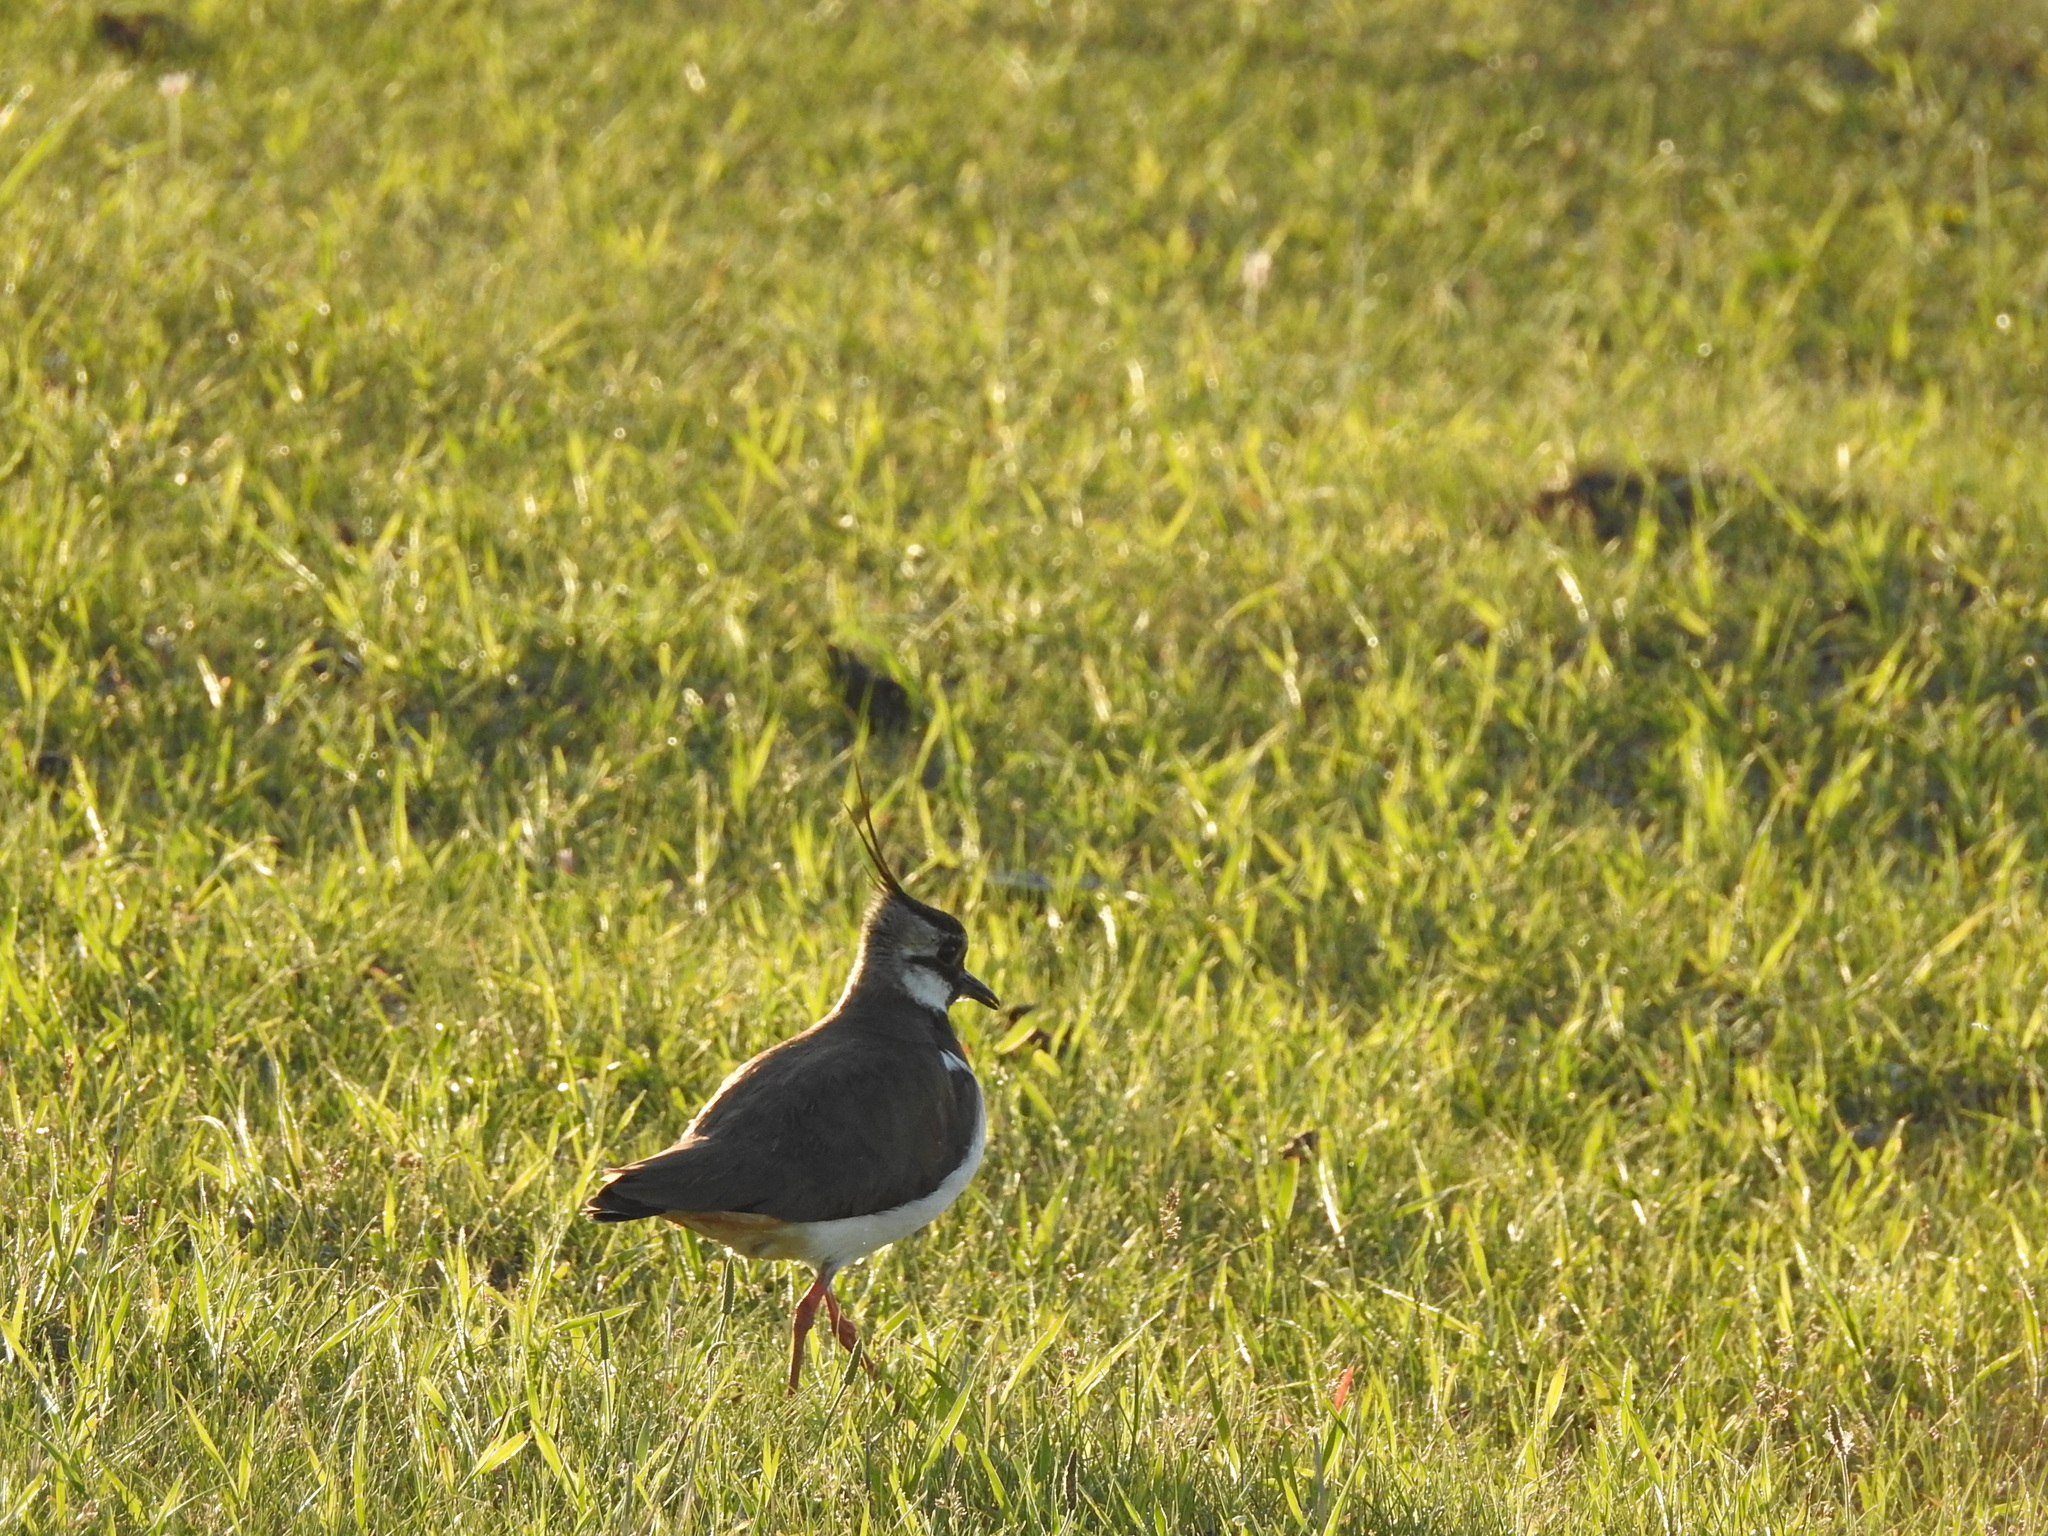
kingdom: Animalia
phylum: Chordata
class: Aves
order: Charadriiformes
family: Charadriidae
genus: Vanellus
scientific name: Vanellus vanellus
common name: Northern lapwing
